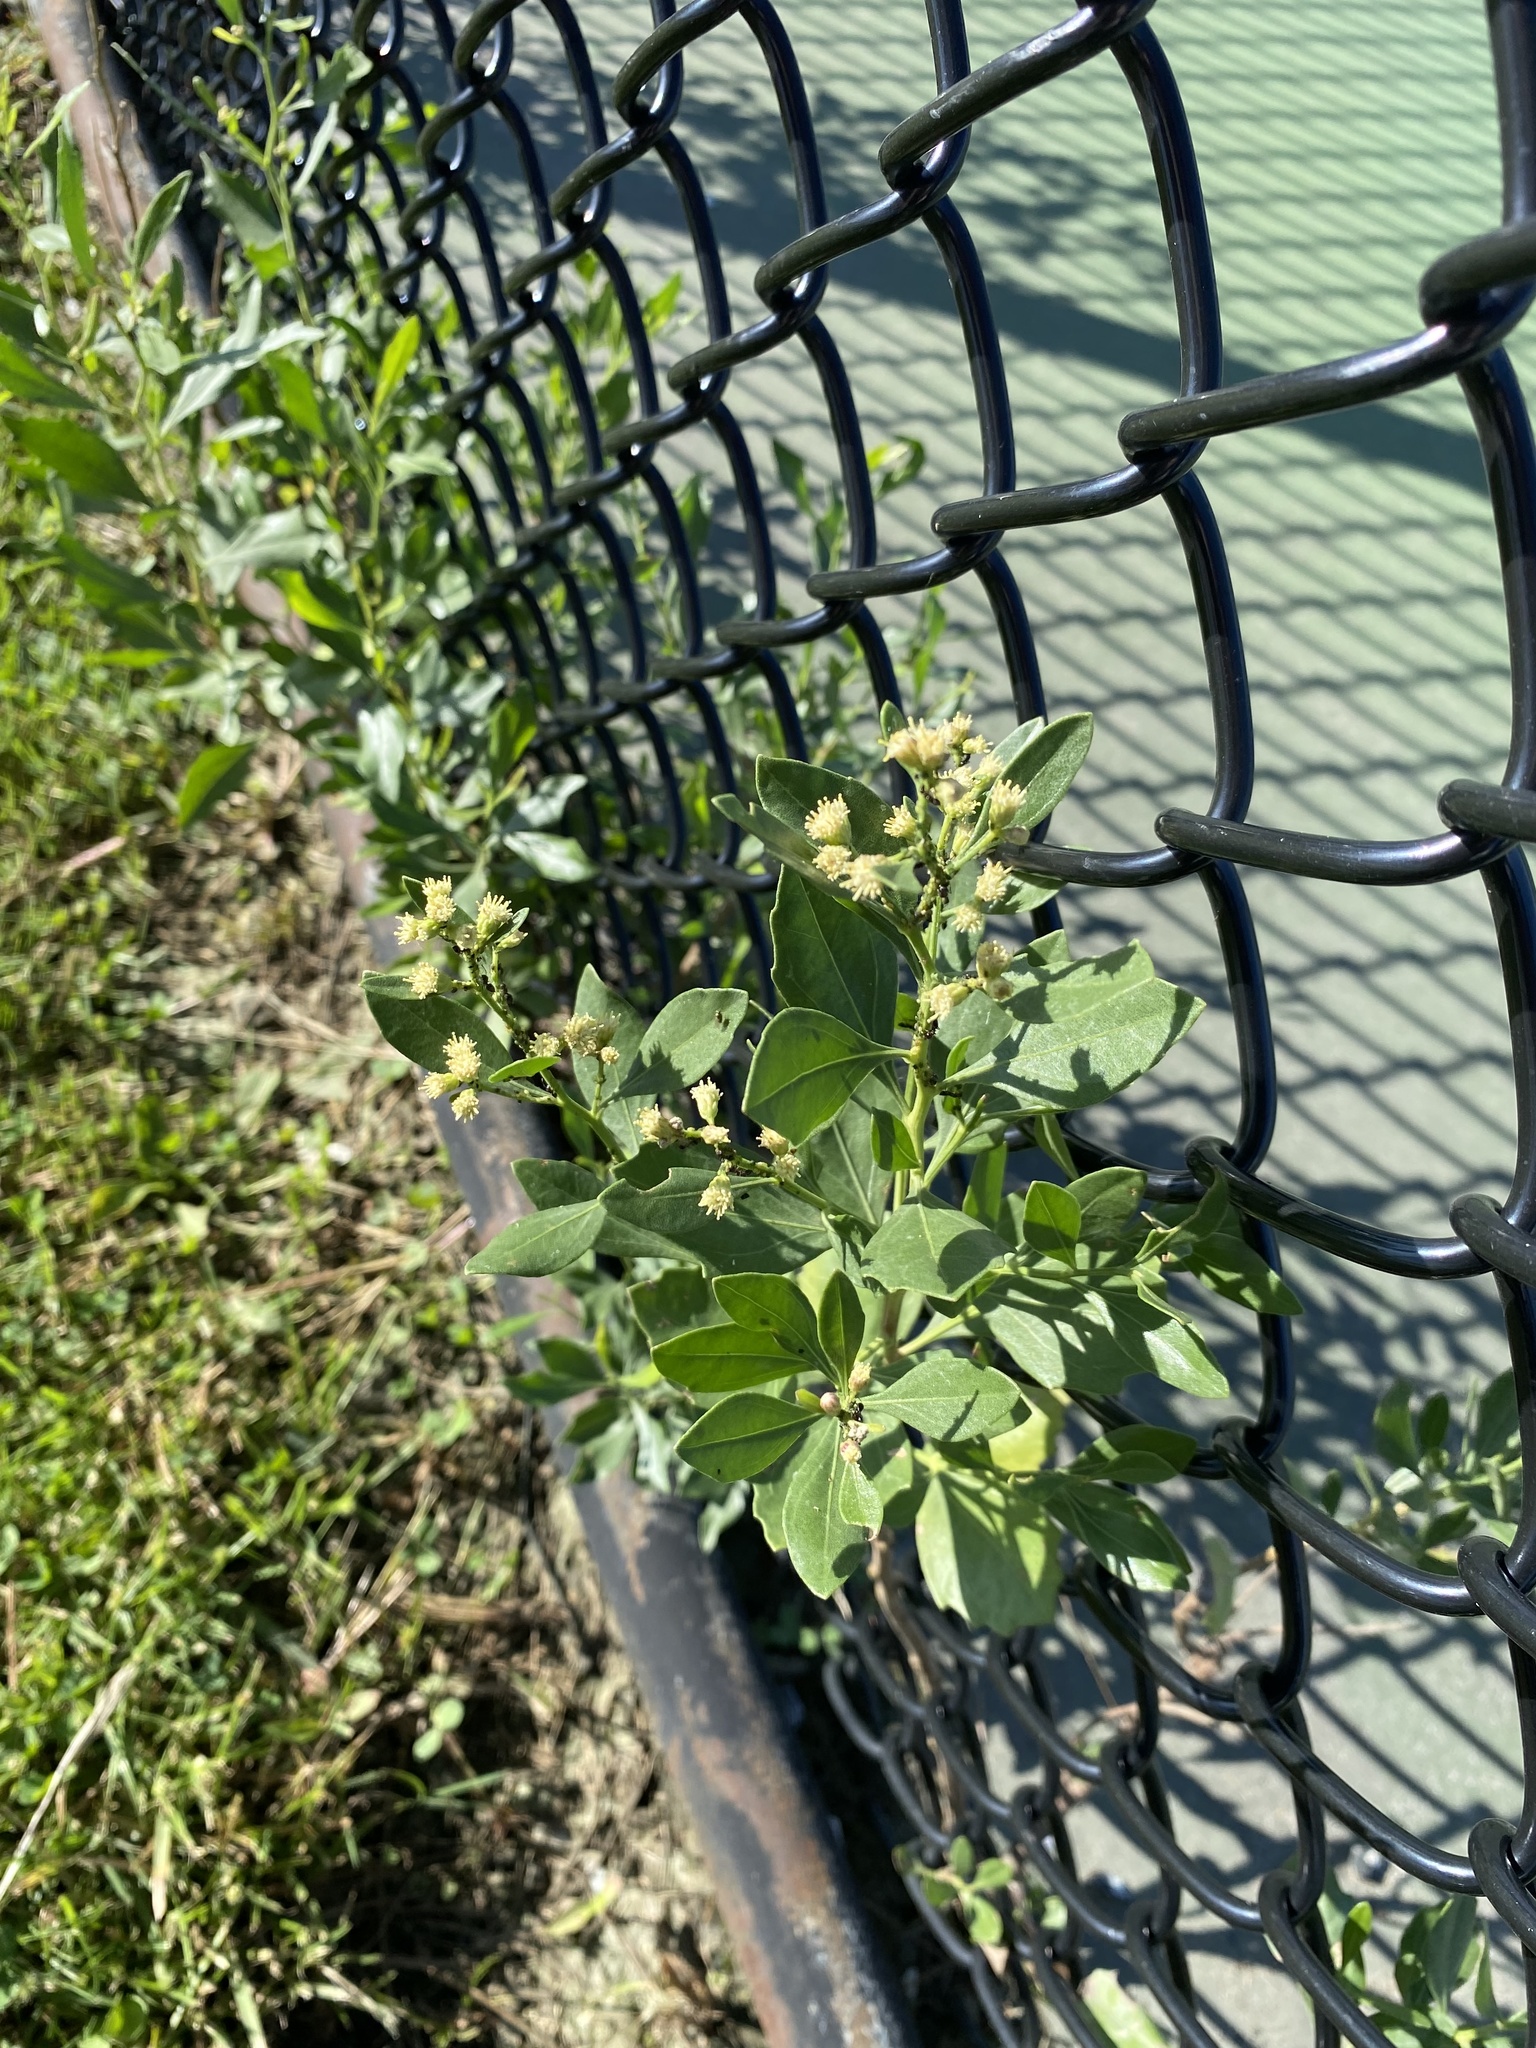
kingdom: Plantae
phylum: Tracheophyta
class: Magnoliopsida
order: Asterales
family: Asteraceae
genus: Baccharis
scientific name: Baccharis halimifolia
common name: Eastern baccharis
